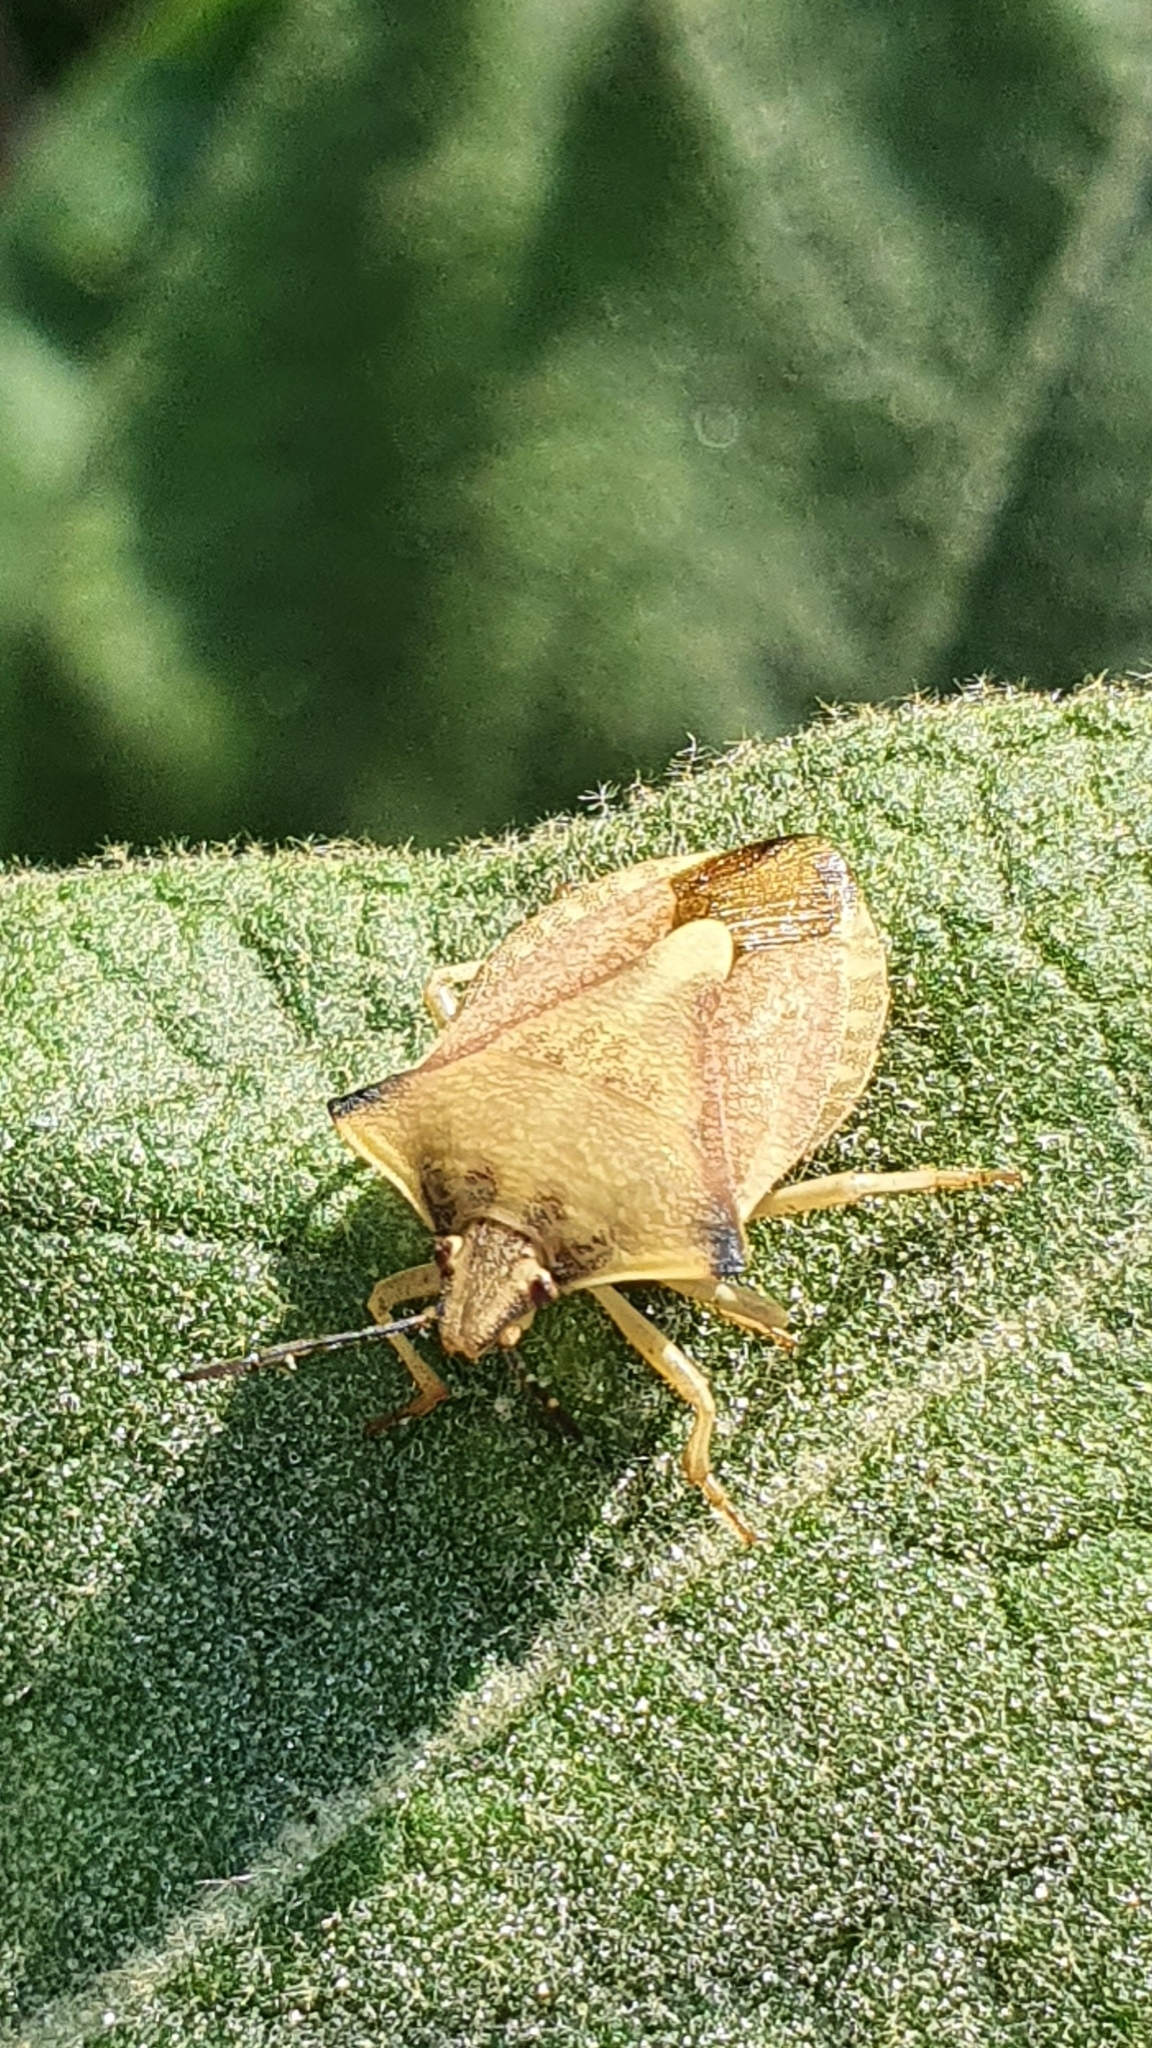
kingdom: Animalia
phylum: Arthropoda
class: Insecta
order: Hemiptera
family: Pentatomidae
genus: Carpocoris
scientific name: Carpocoris fuscispinus
